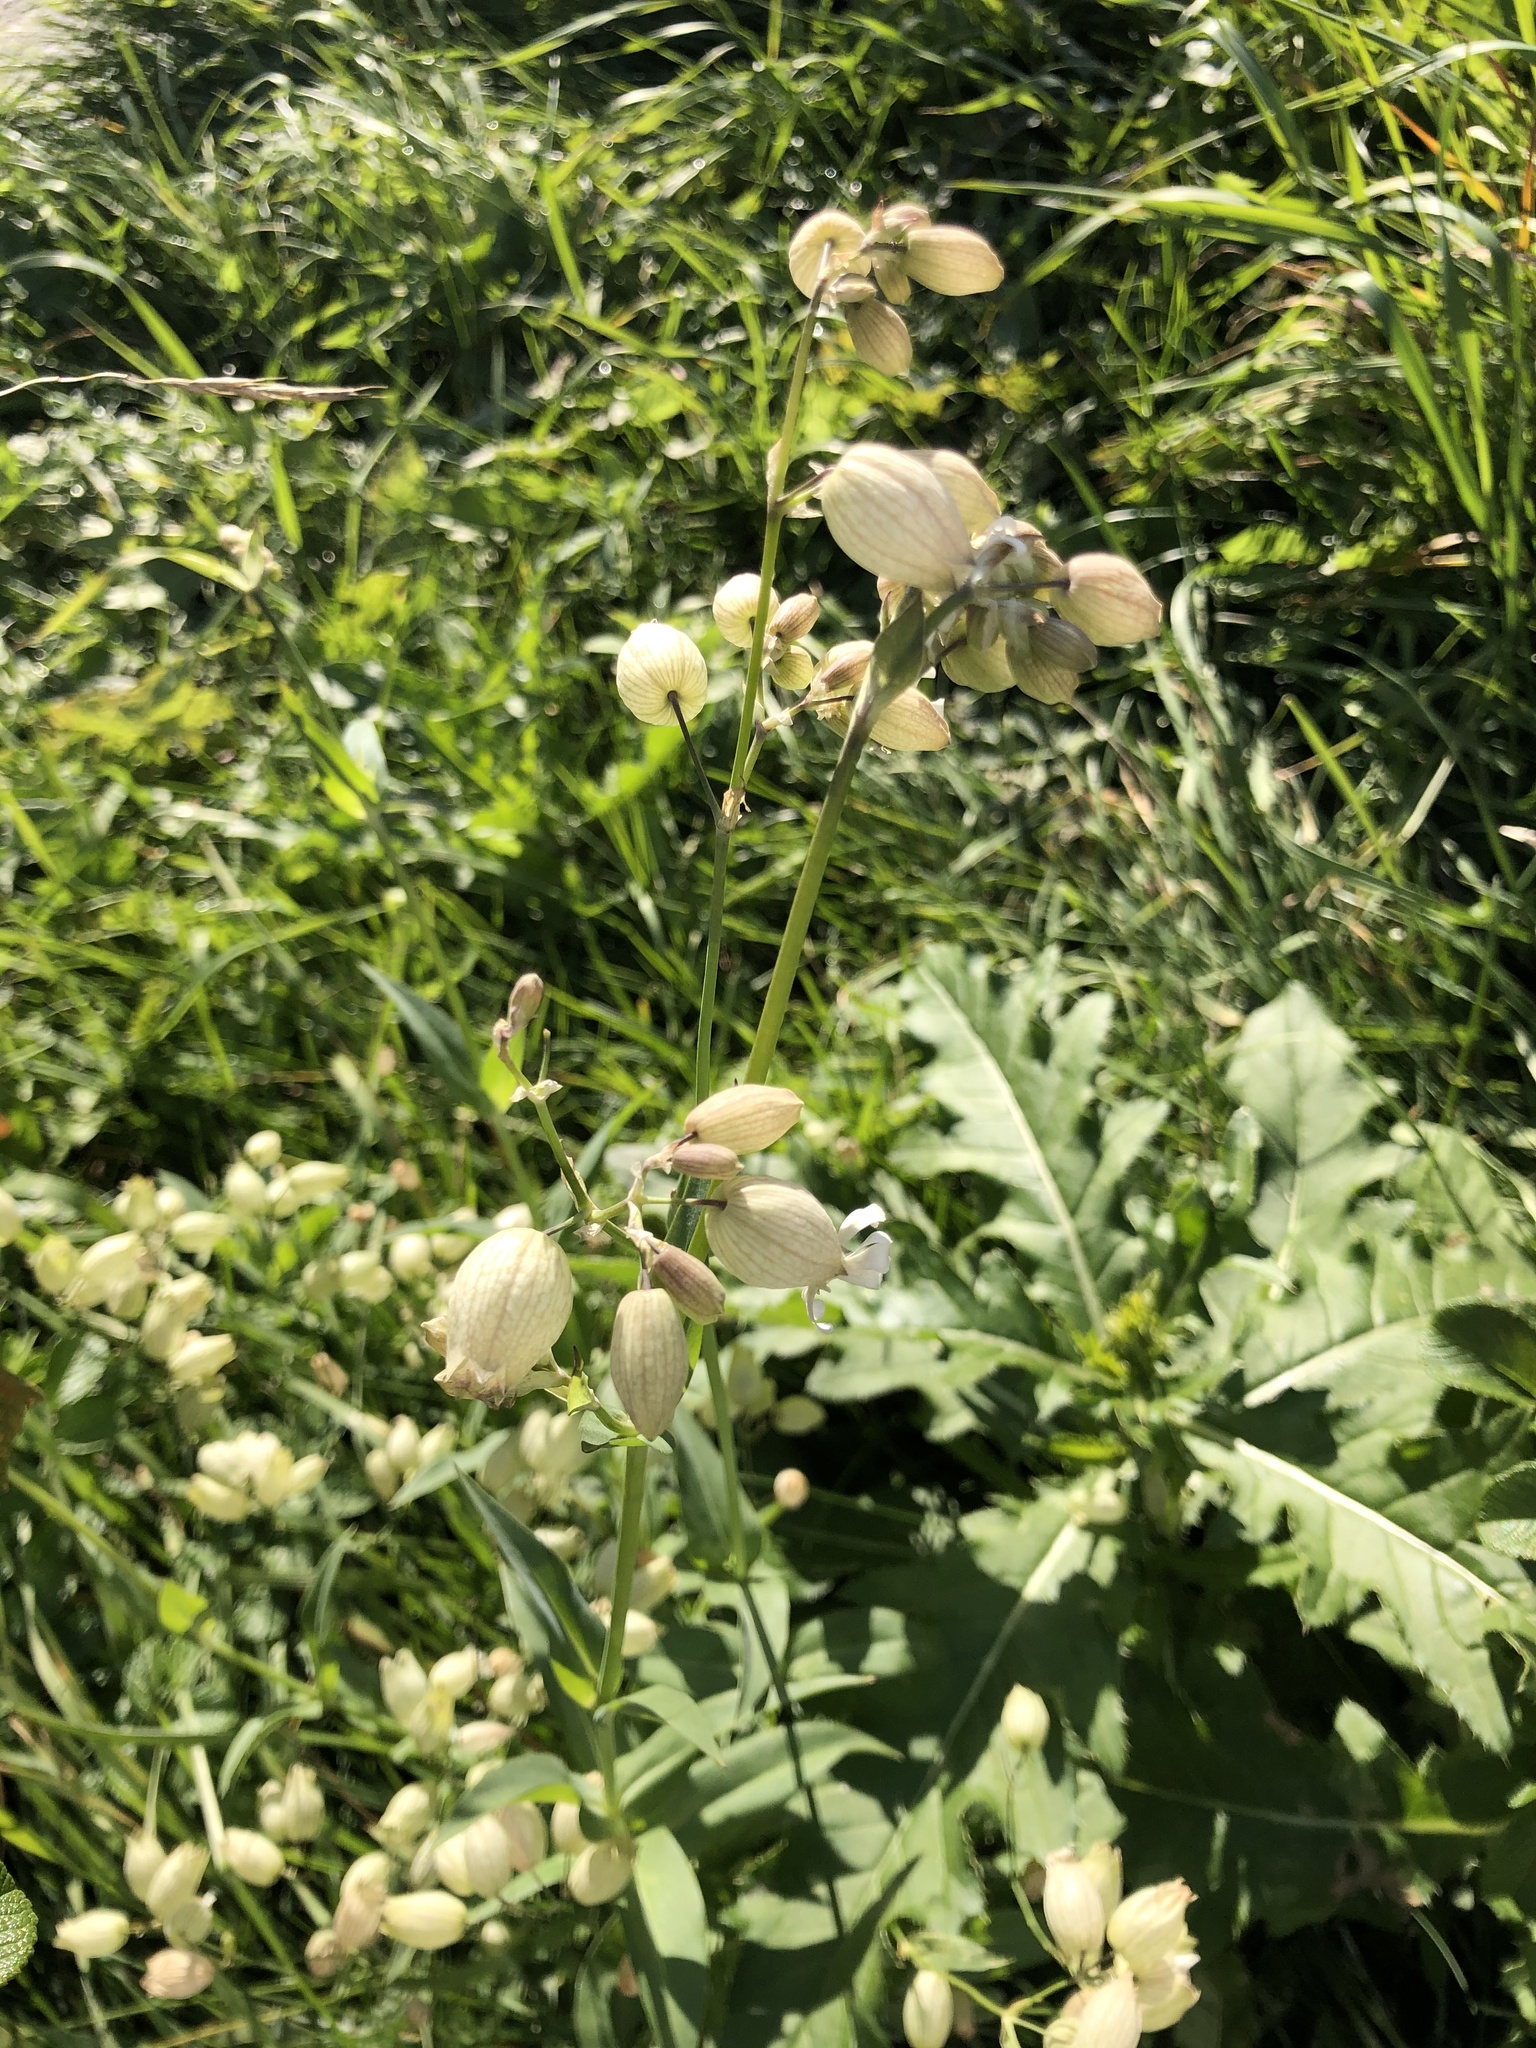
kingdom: Plantae
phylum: Tracheophyta
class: Magnoliopsida
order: Caryophyllales
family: Caryophyllaceae
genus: Silene
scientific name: Silene vulgaris
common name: Bladder campion
